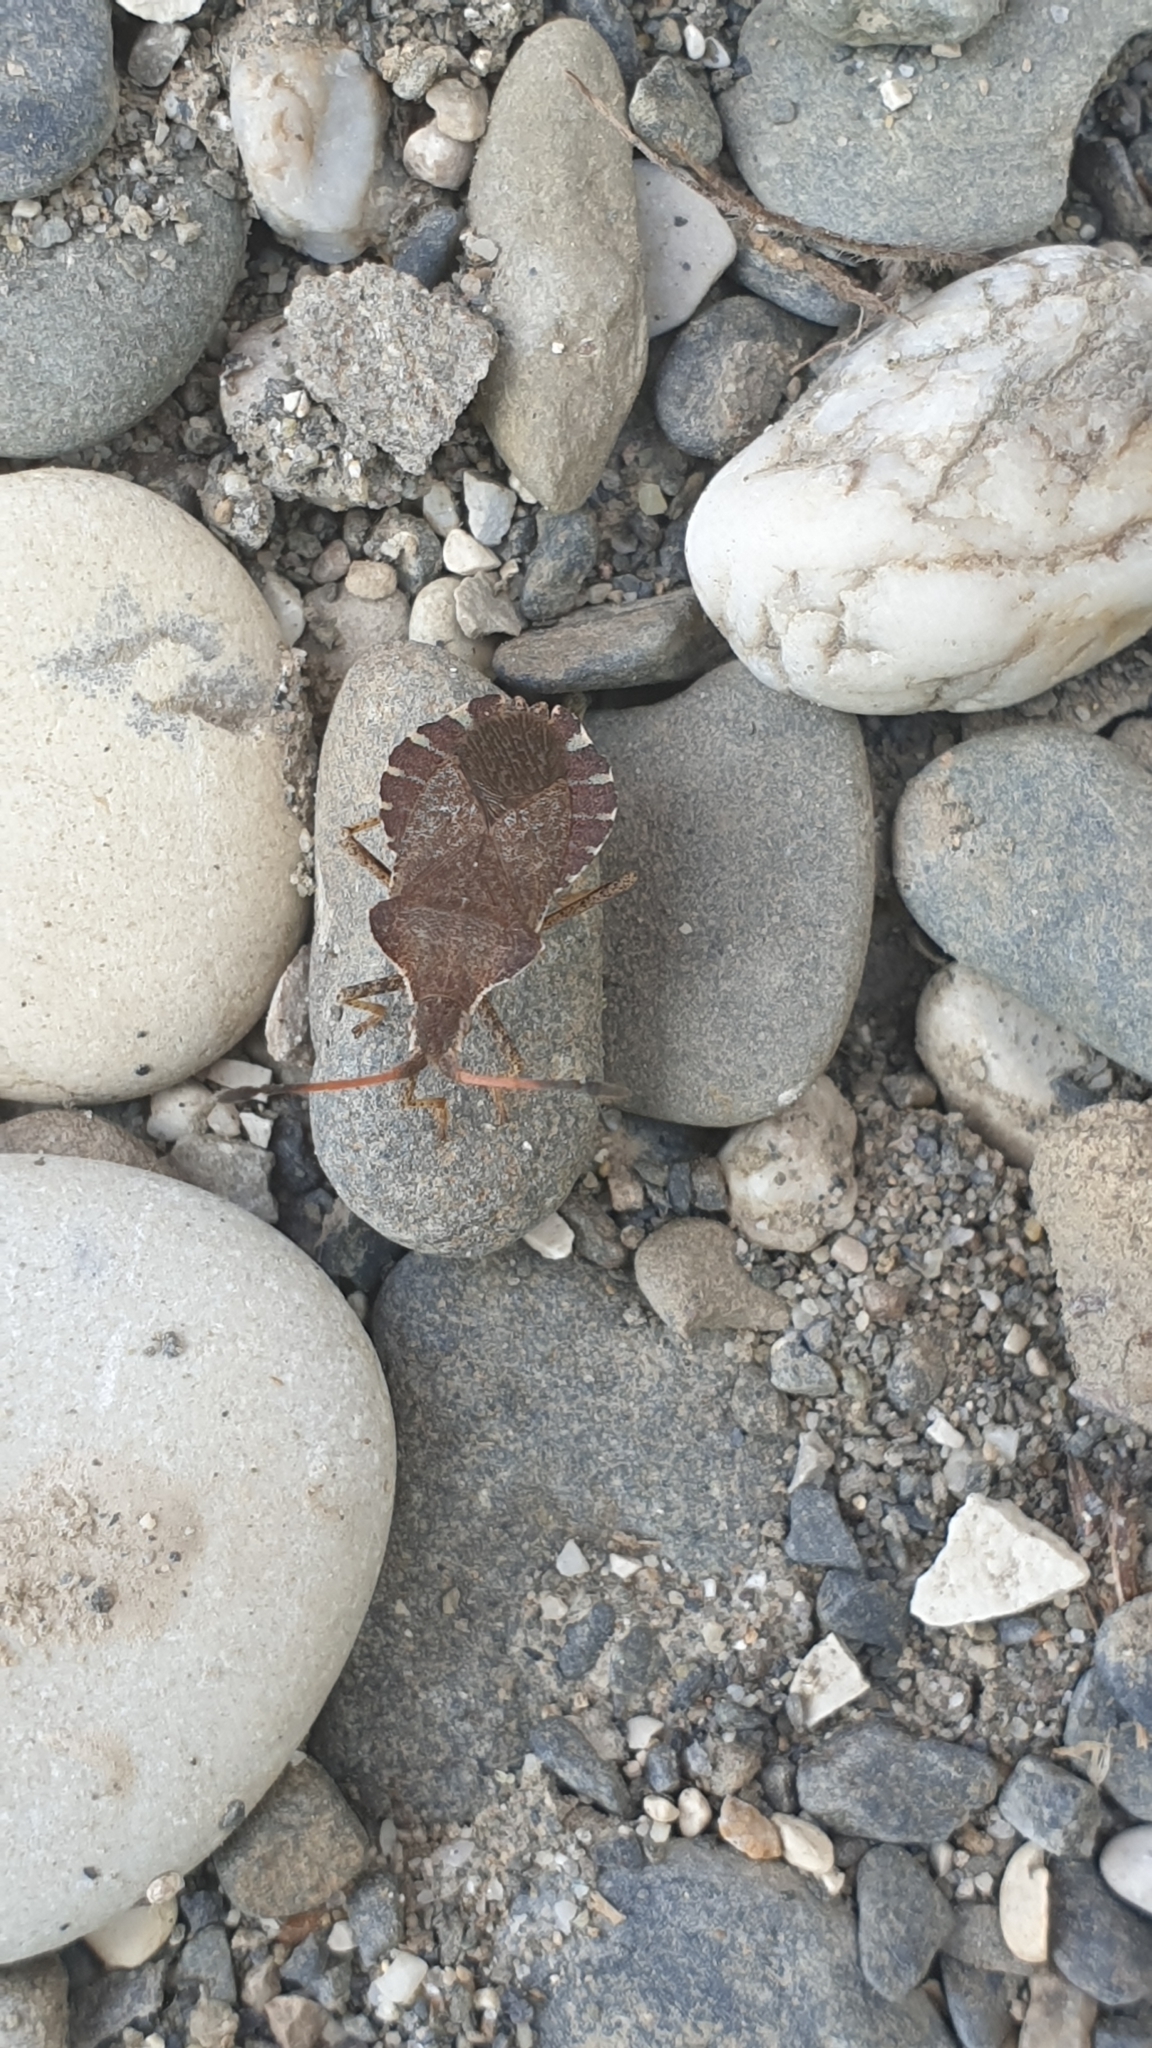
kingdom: Animalia
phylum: Arthropoda
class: Insecta
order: Hemiptera
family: Coreidae
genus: Enoplops
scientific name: Enoplops scapha
